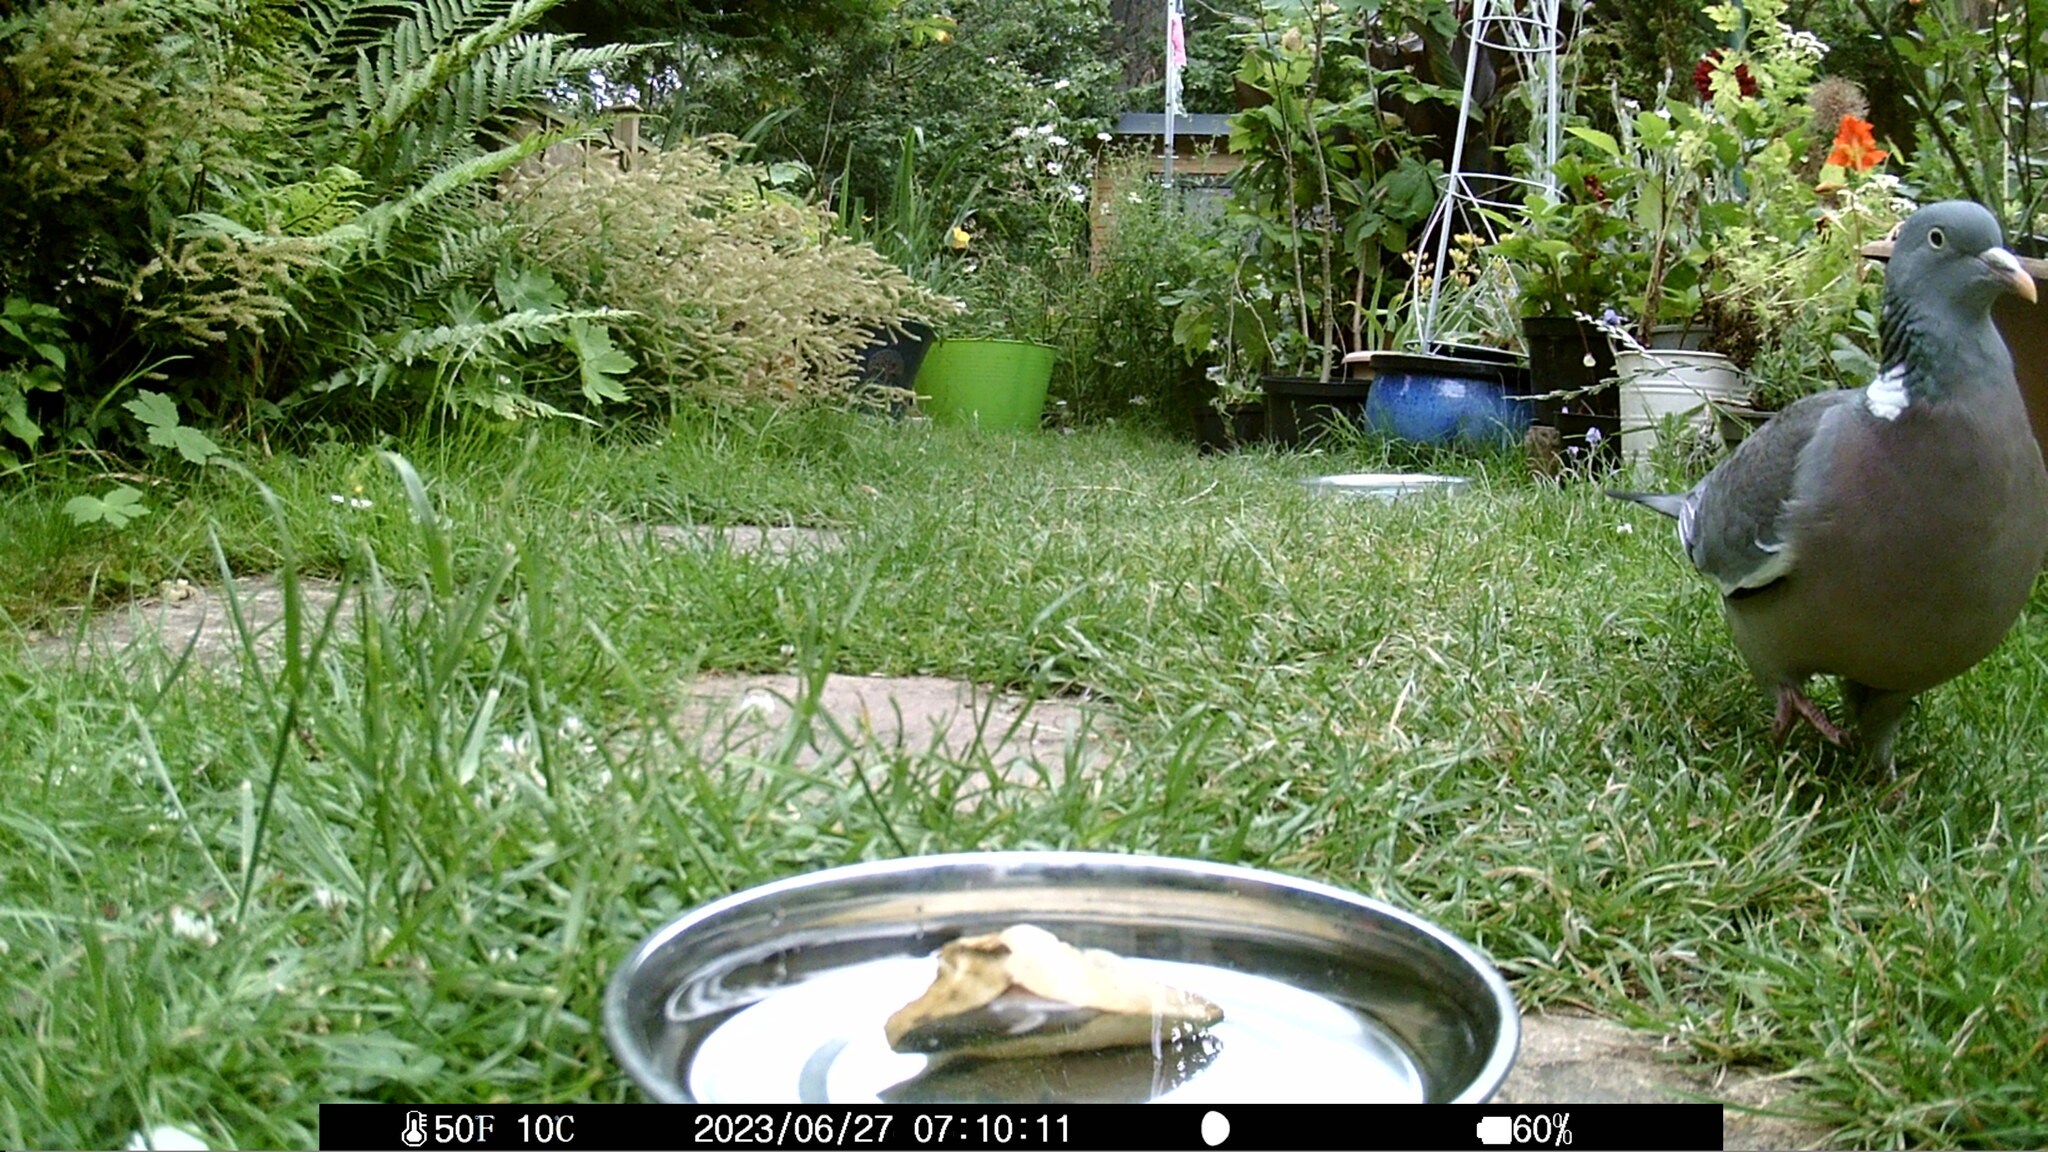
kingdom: Animalia
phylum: Chordata
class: Aves
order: Columbiformes
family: Columbidae
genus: Columba
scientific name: Columba palumbus
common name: Common wood pigeon
